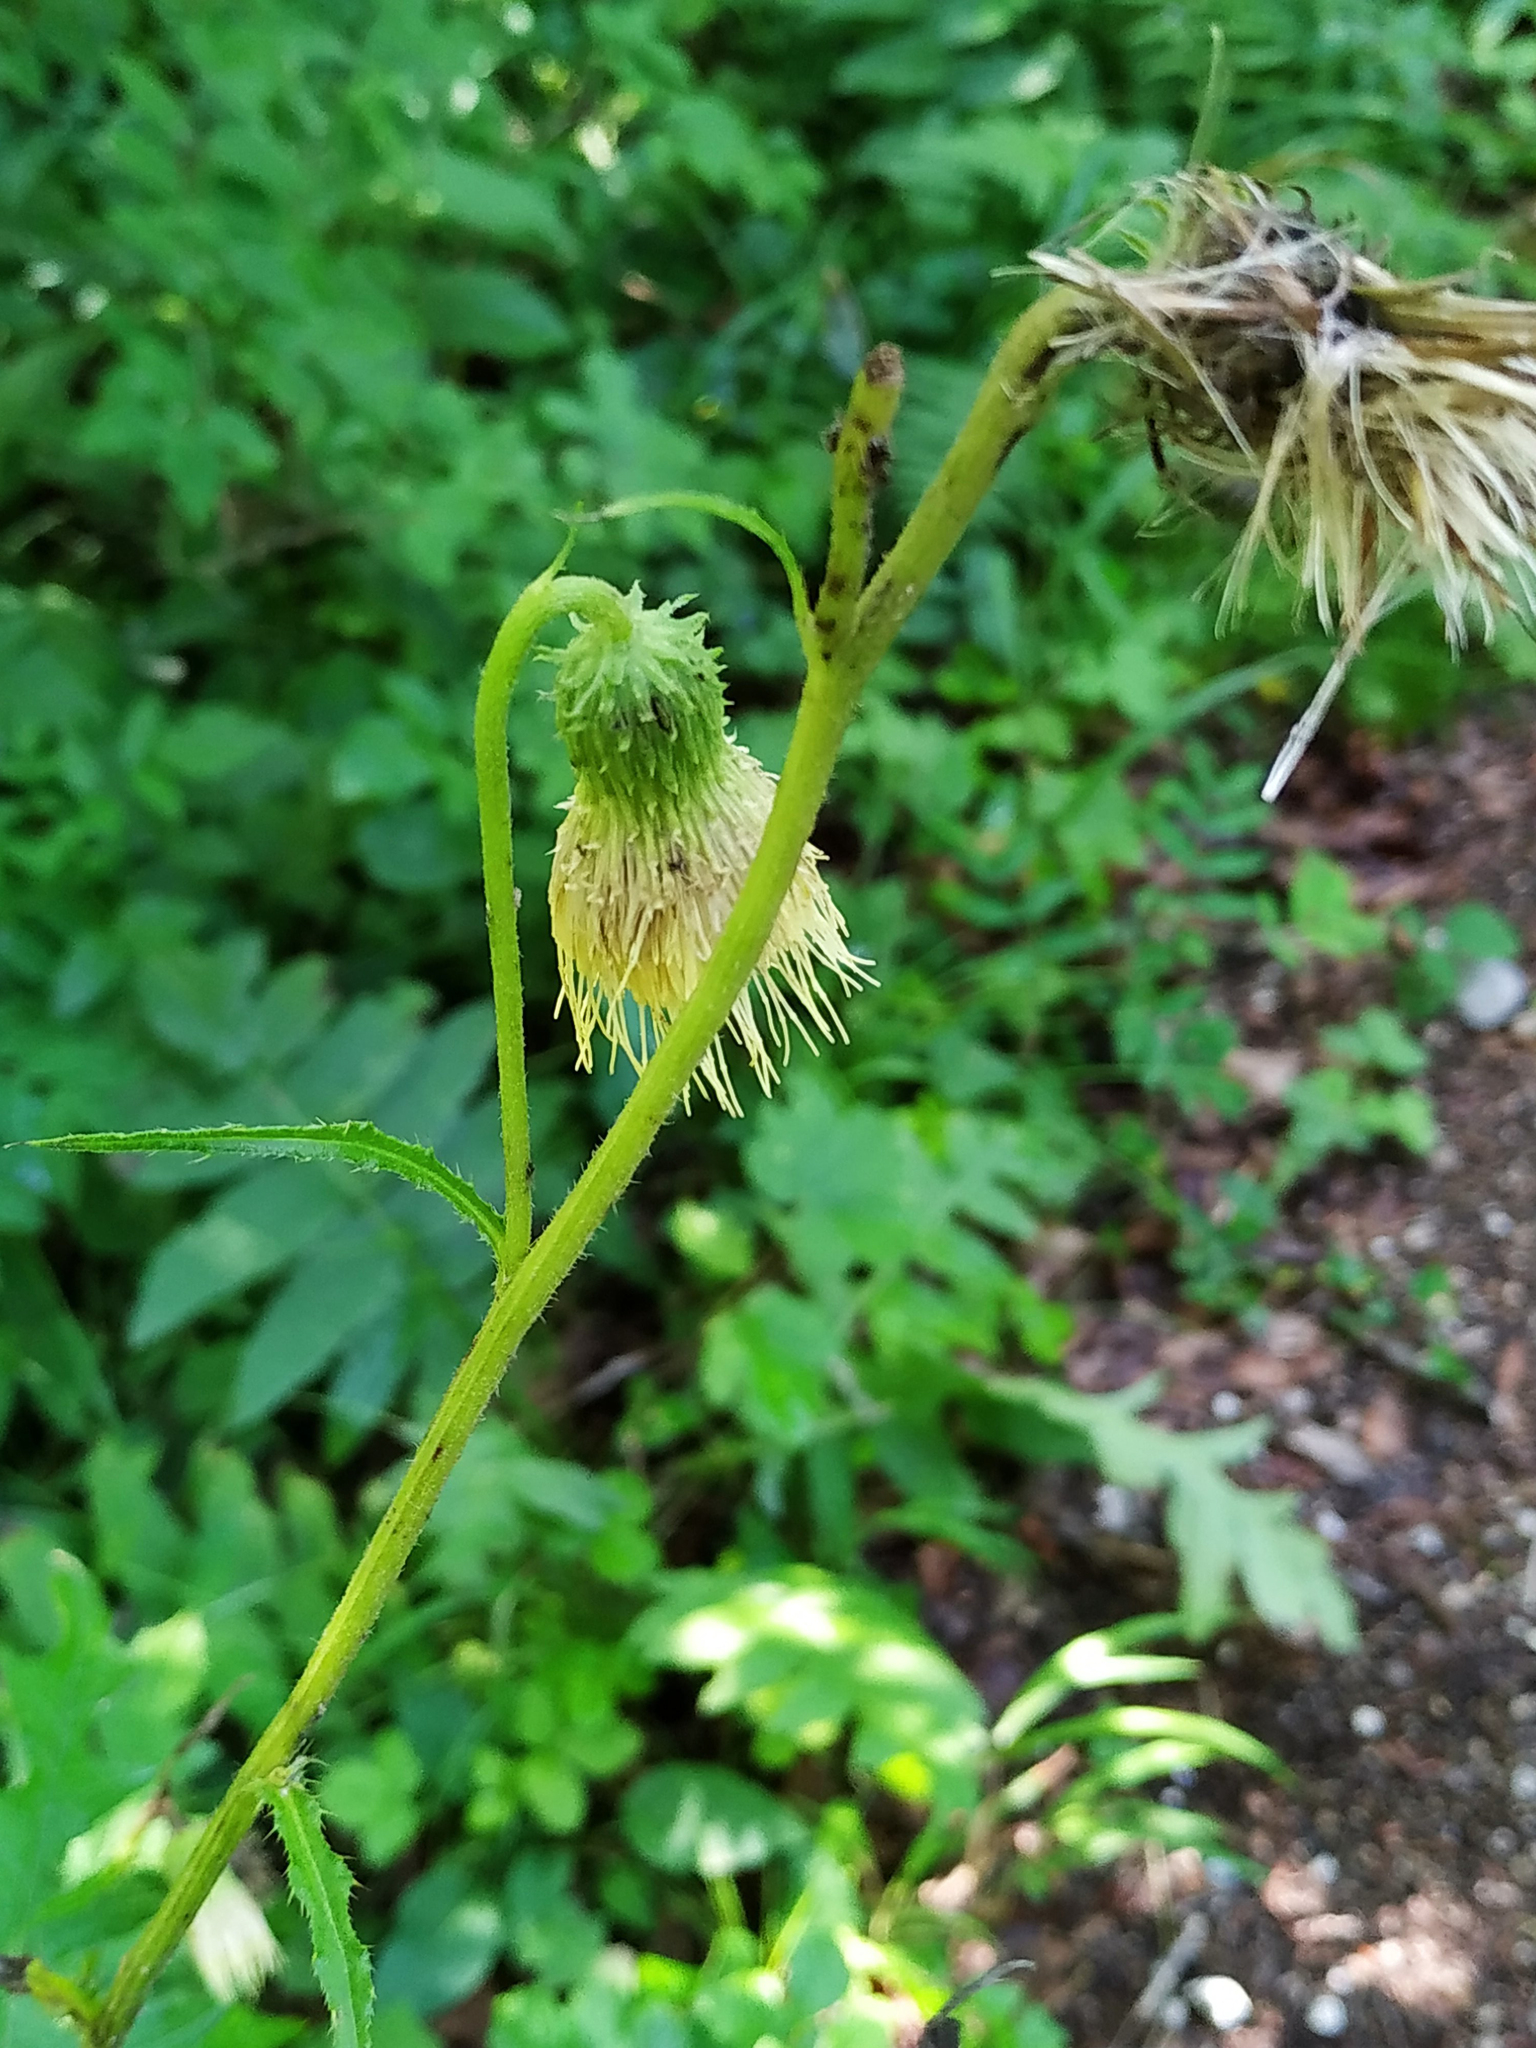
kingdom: Plantae
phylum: Tracheophyta
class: Magnoliopsida
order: Asterales
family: Asteraceae
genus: Cirsium
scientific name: Cirsium erisithales
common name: Yellow thistle
